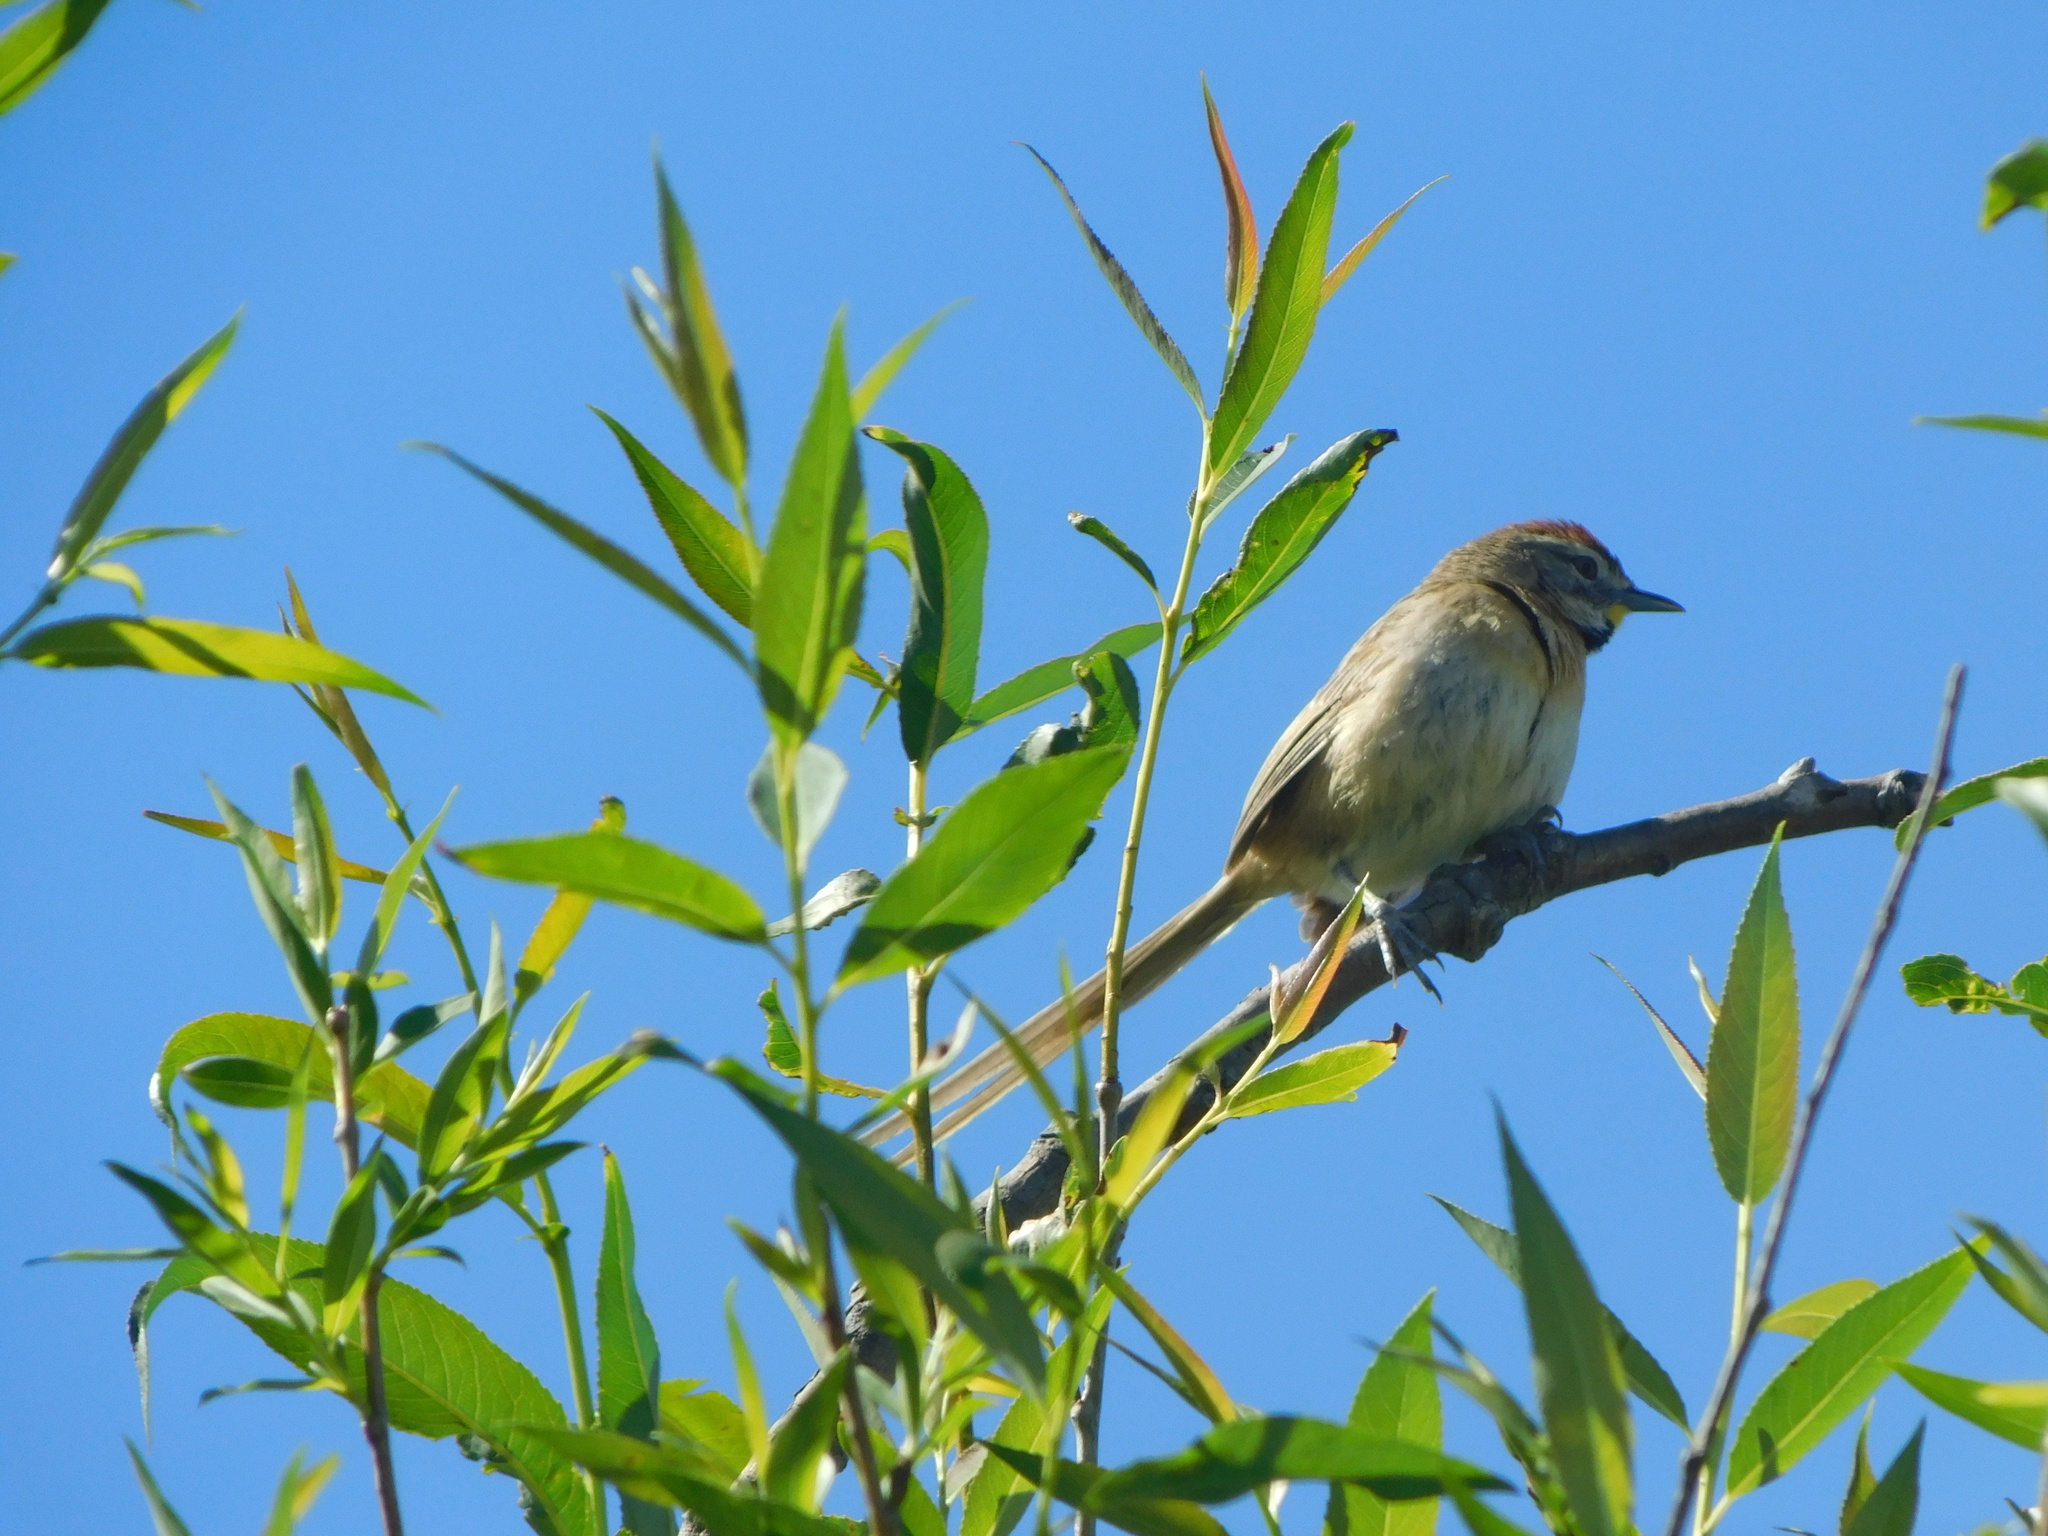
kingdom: Animalia
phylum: Chordata
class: Aves
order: Passeriformes
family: Furnariidae
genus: Schoeniophylax
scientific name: Schoeniophylax phryganophilus
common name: Chotoy spinetail
